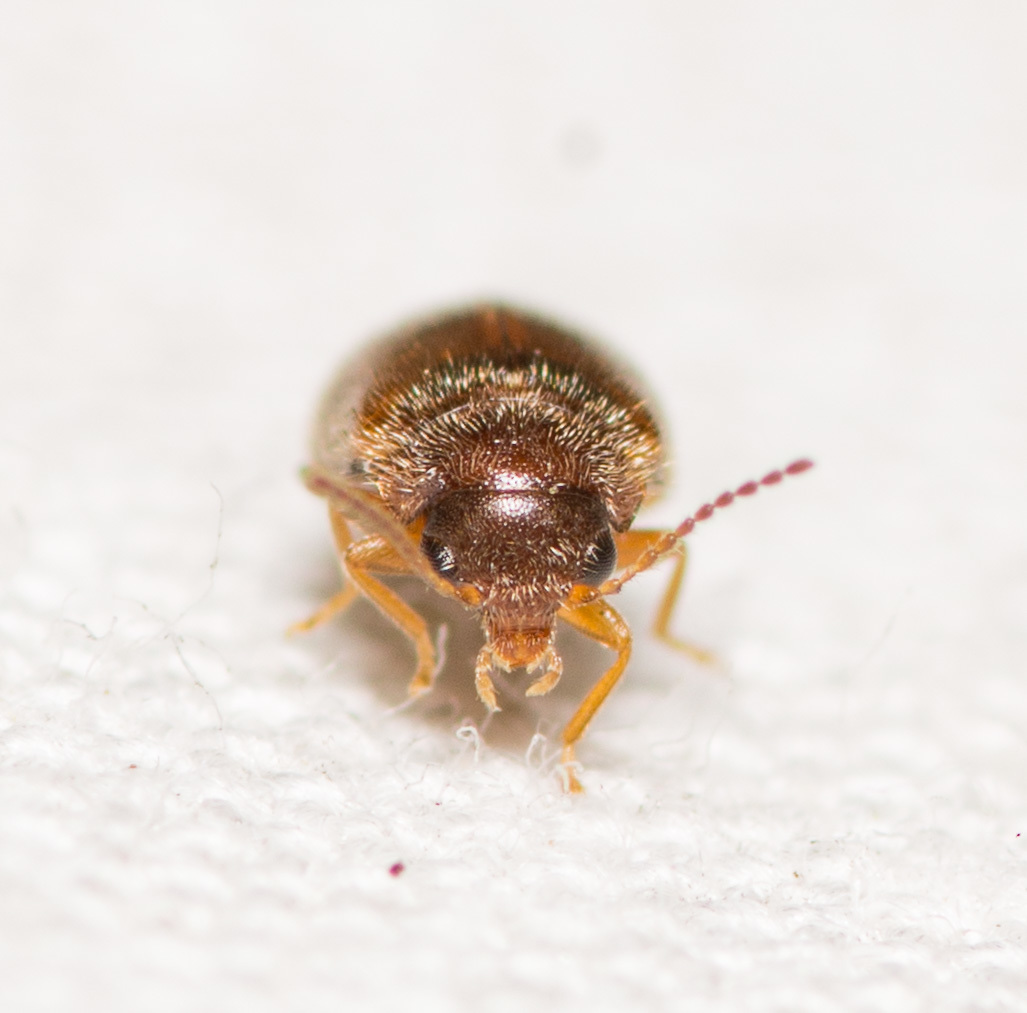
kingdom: Animalia
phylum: Arthropoda
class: Insecta
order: Coleoptera
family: Scirtidae
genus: Contacyphon
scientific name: Contacyphon
